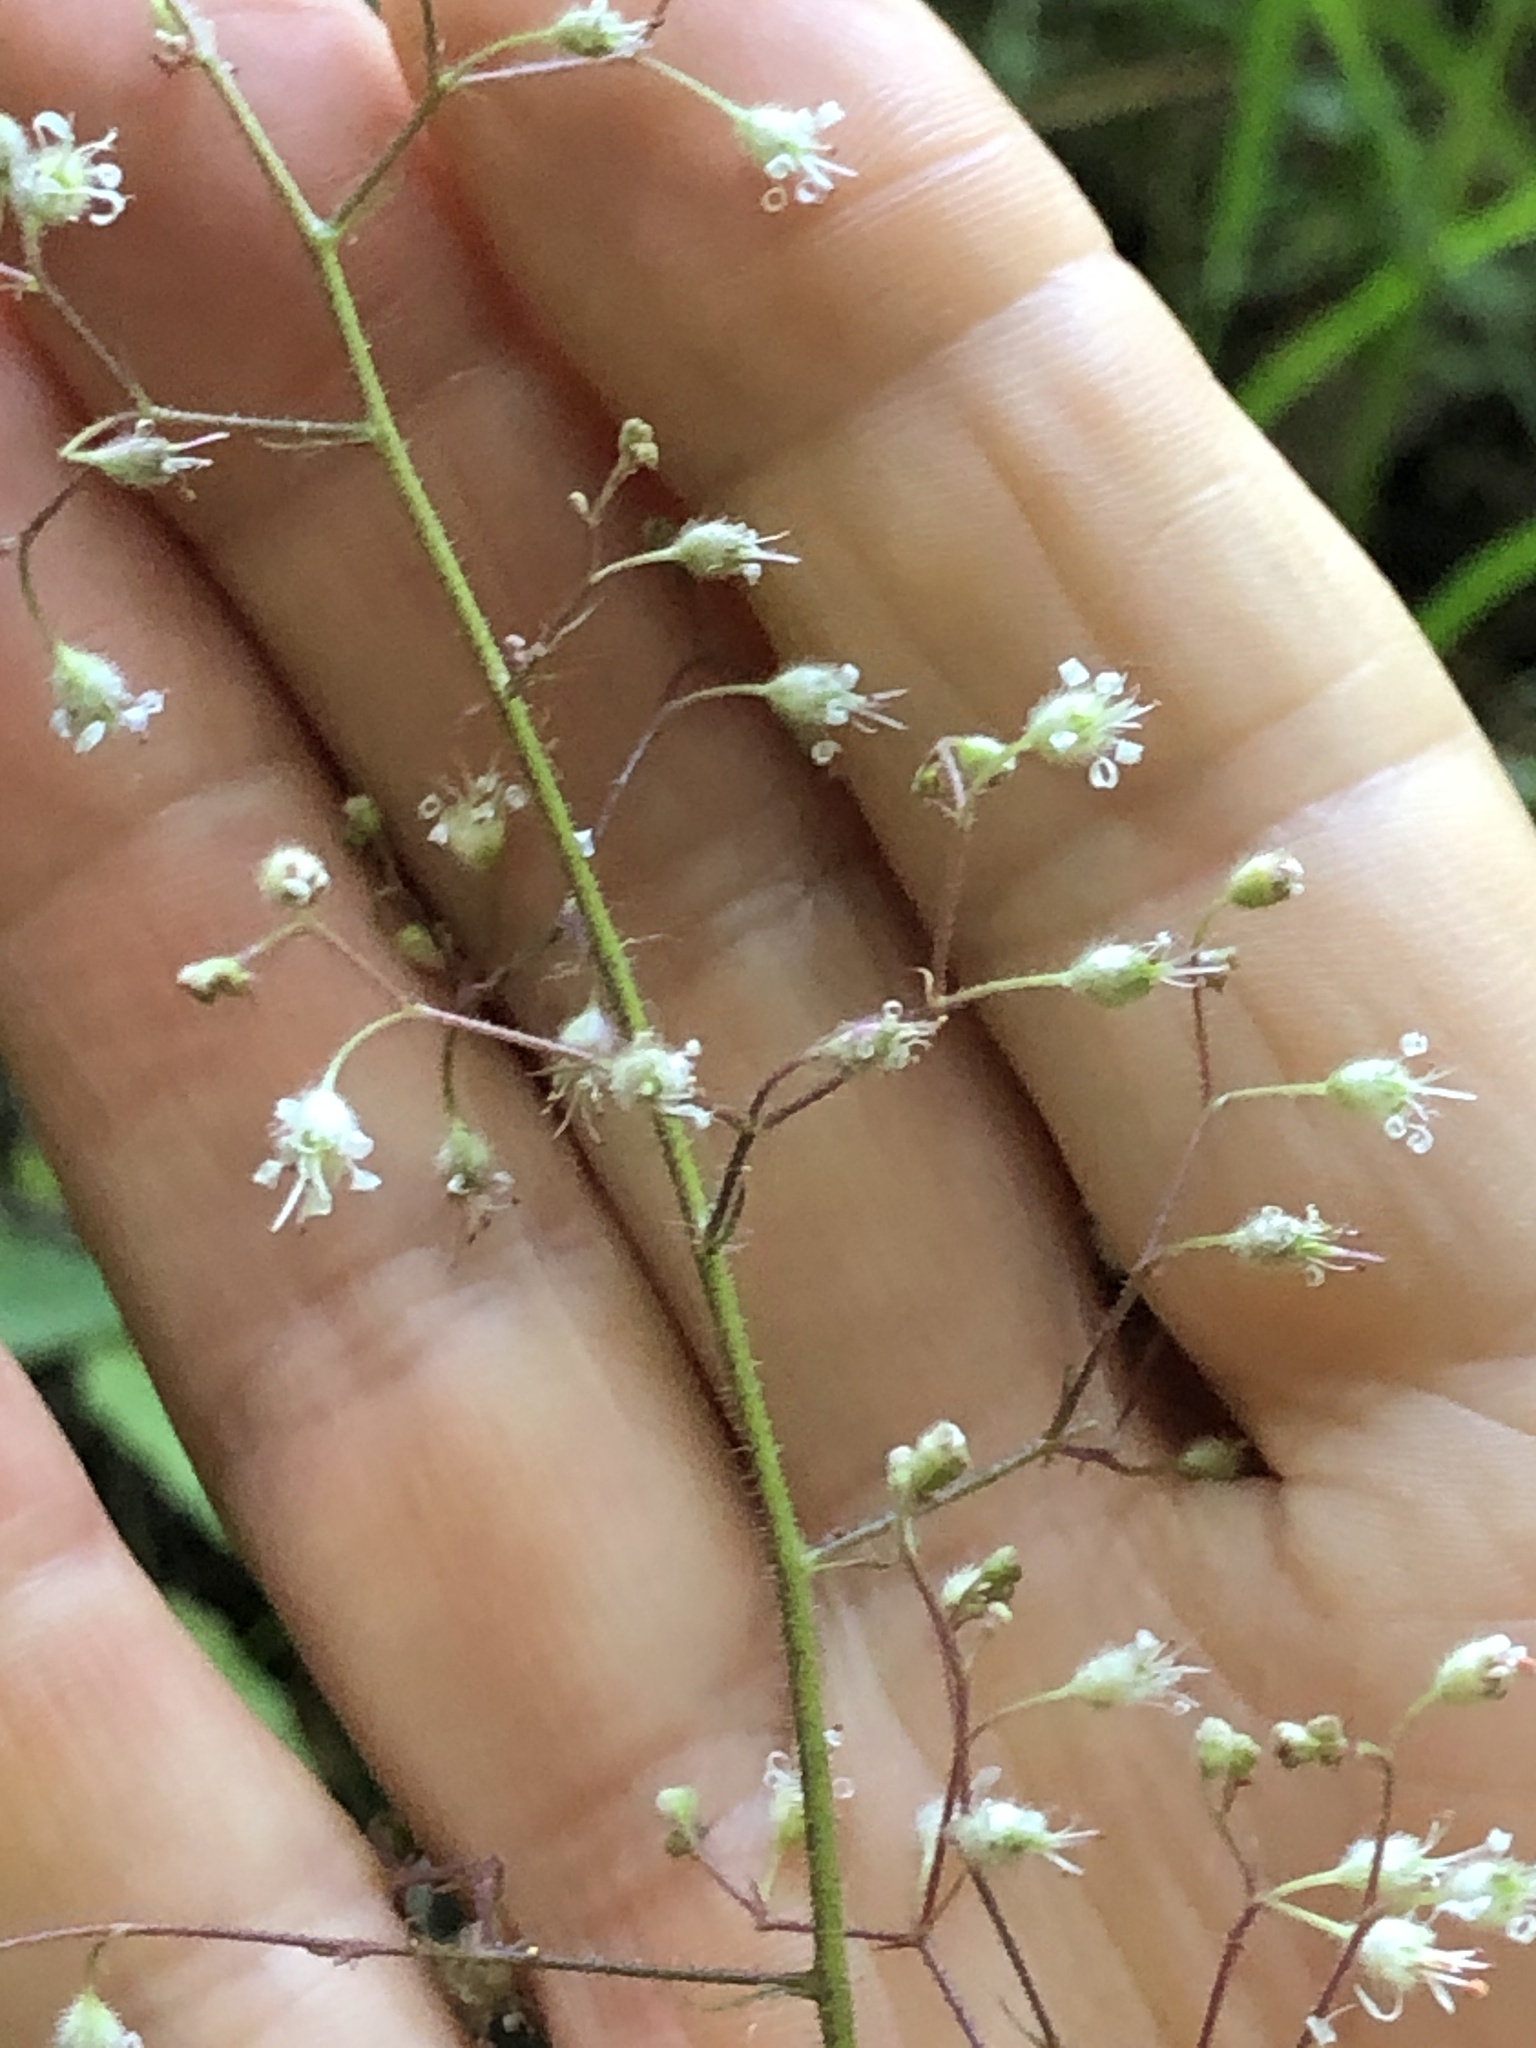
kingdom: Plantae
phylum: Tracheophyta
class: Magnoliopsida
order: Saxifragales
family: Saxifragaceae
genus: Heuchera
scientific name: Heuchera micrantha
